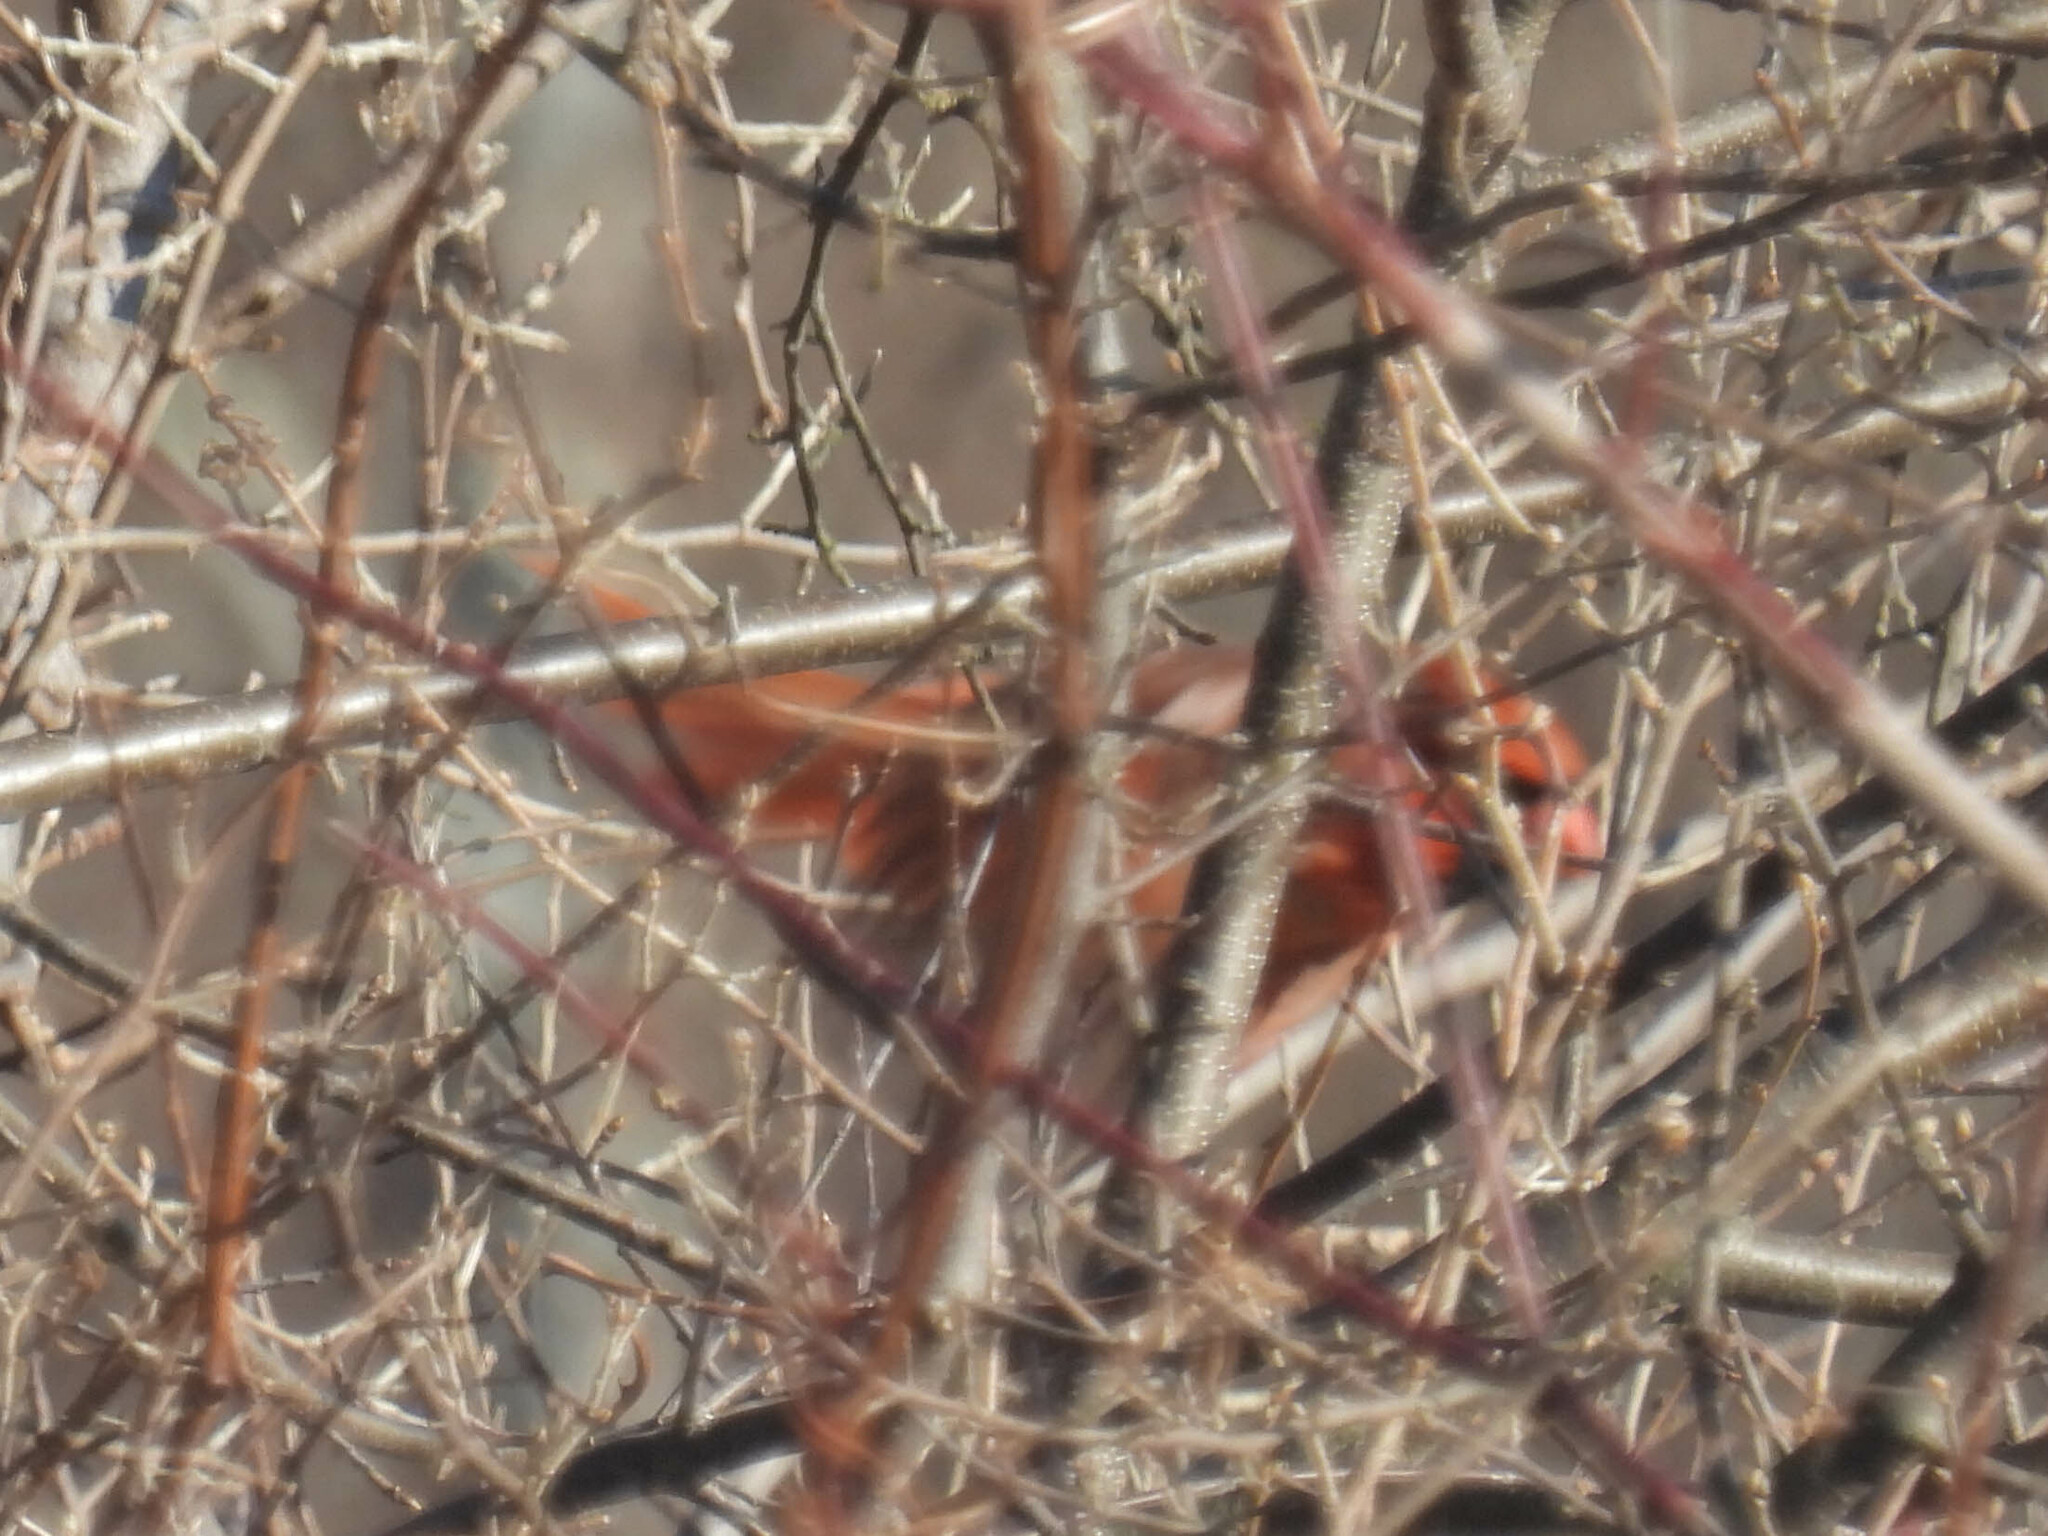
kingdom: Animalia
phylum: Chordata
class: Aves
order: Passeriformes
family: Cardinalidae
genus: Cardinalis
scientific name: Cardinalis cardinalis
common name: Northern cardinal
